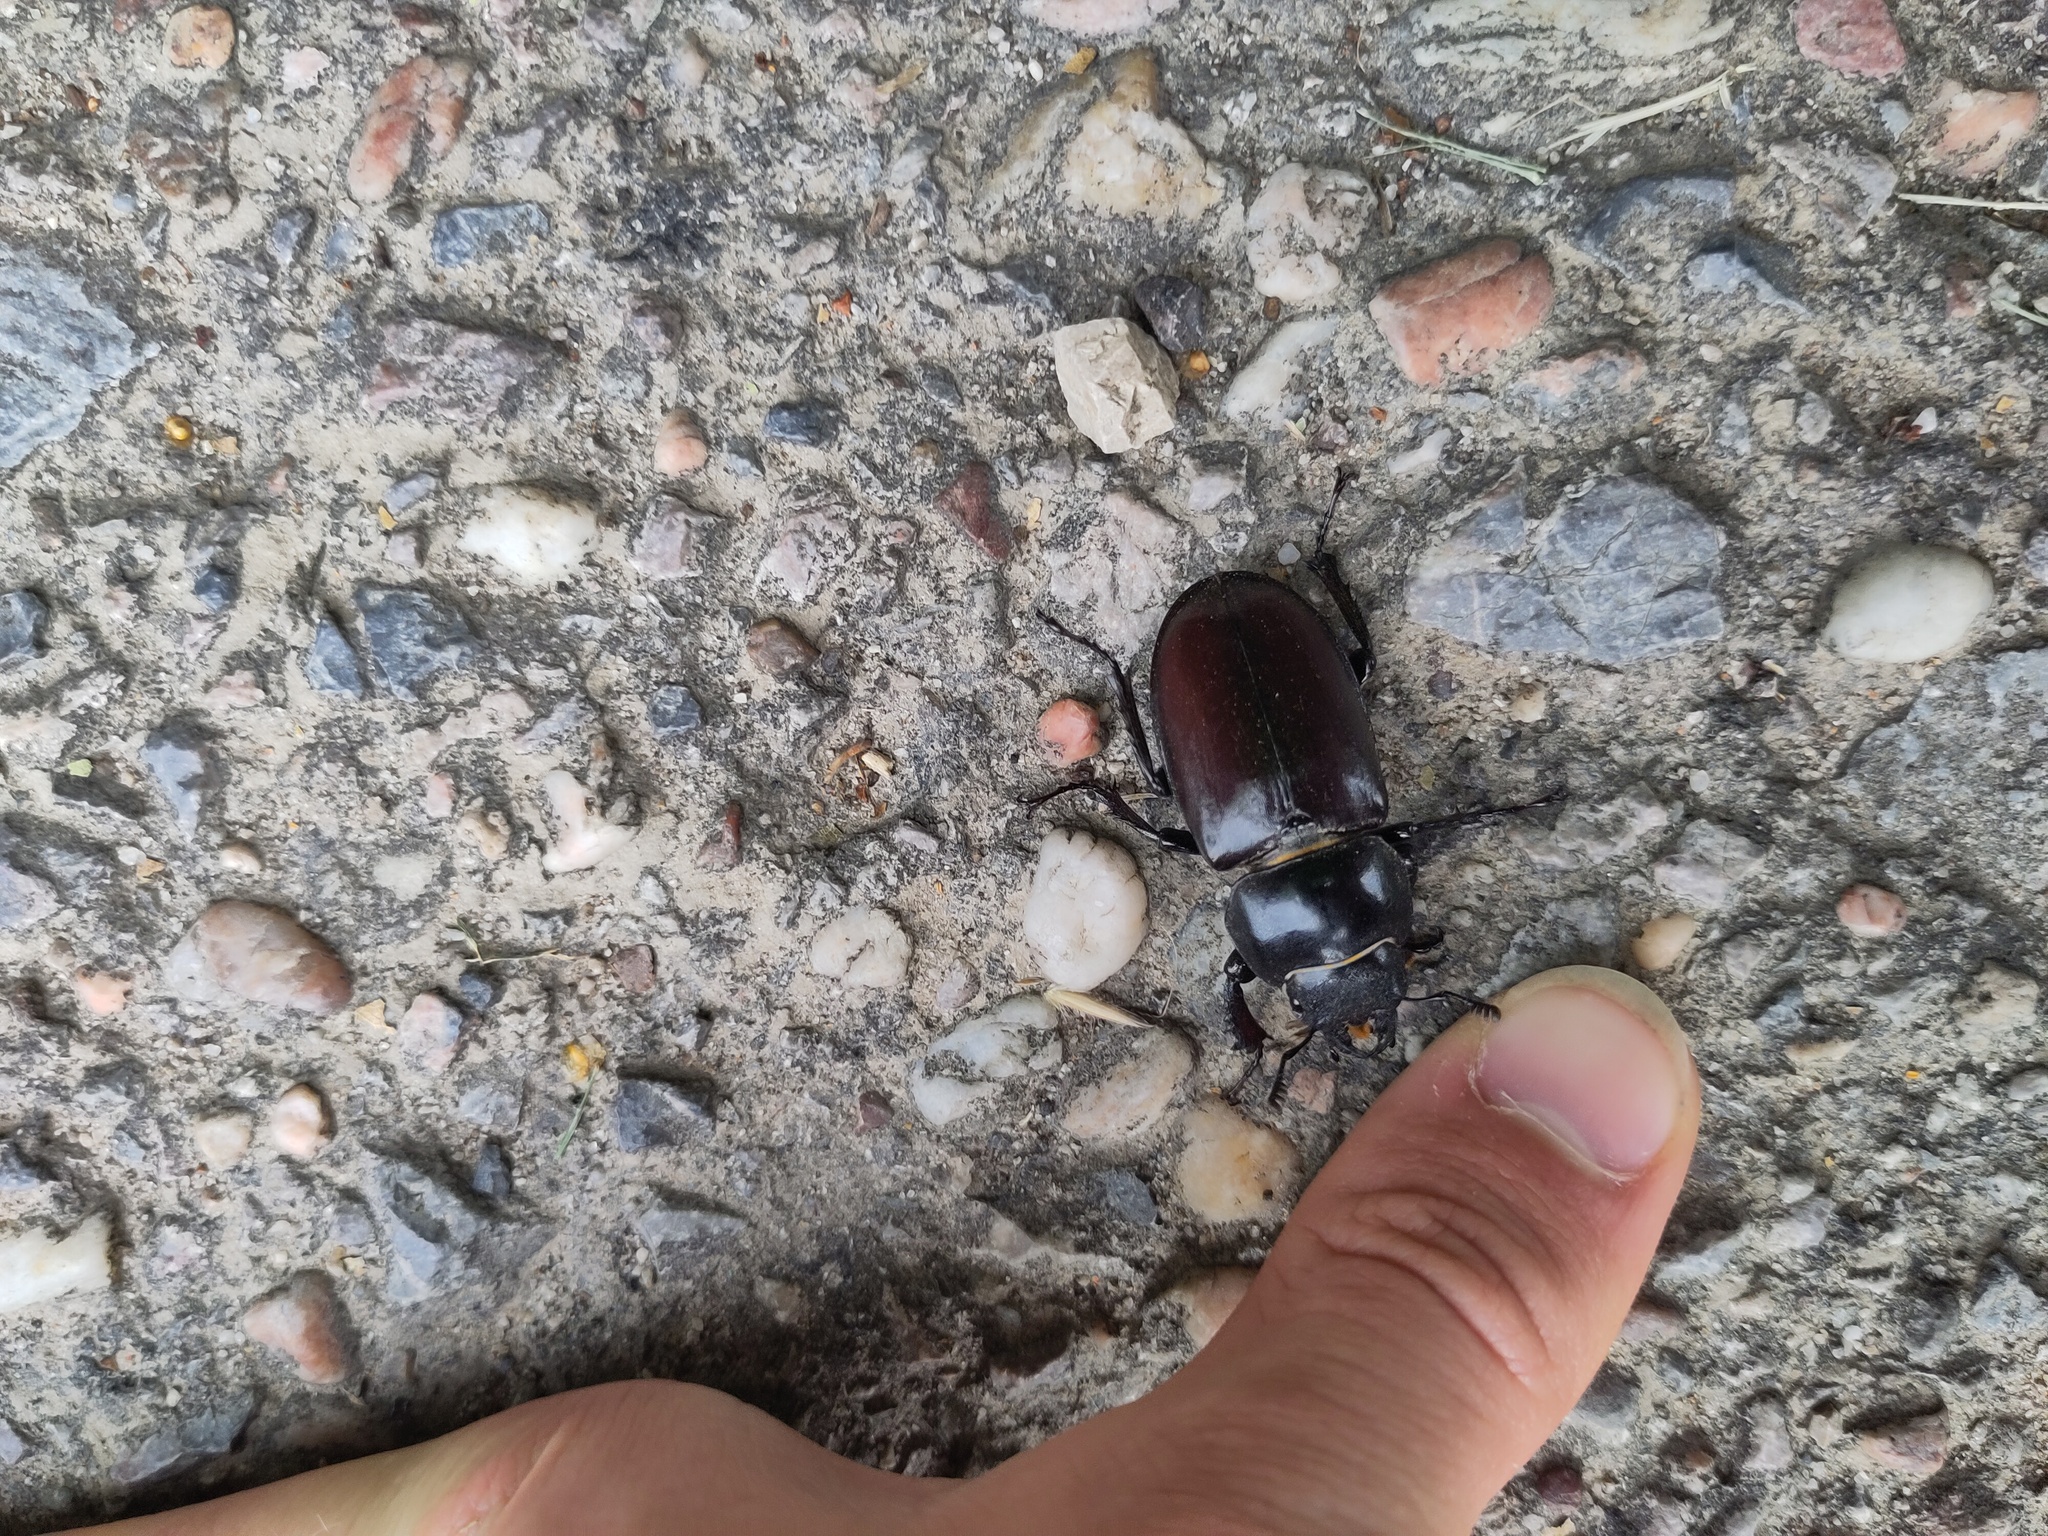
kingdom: Animalia
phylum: Arthropoda
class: Insecta
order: Coleoptera
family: Lucanidae
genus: Lucanus
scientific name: Lucanus cervus
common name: Stag beetle
